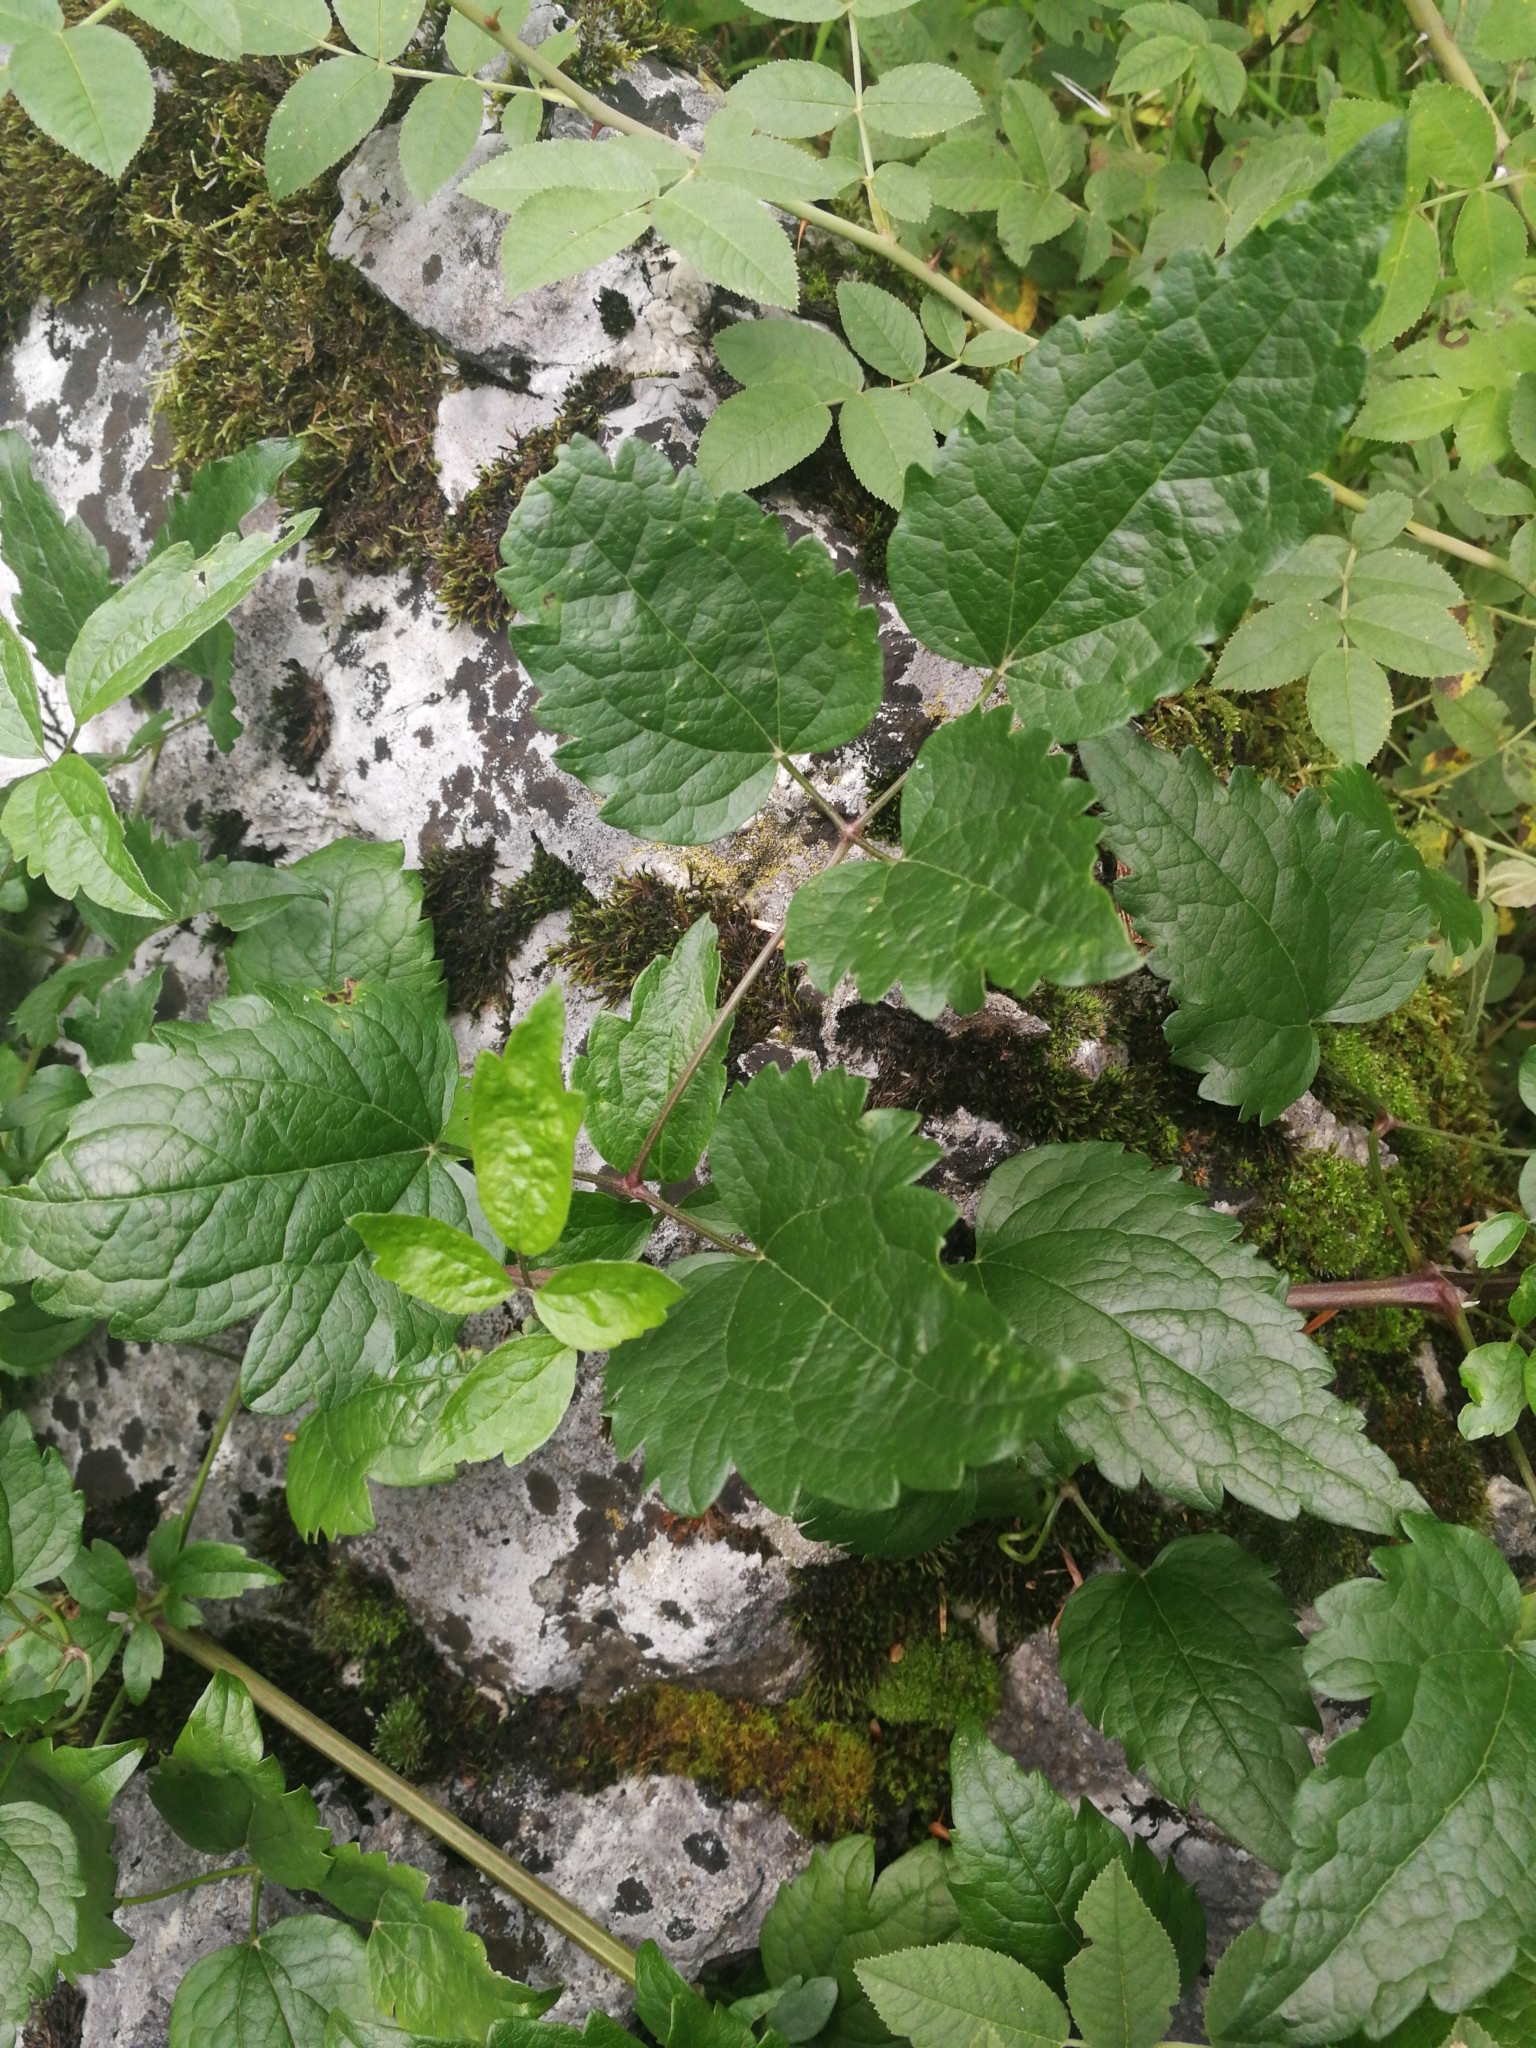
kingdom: Plantae
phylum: Tracheophyta
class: Magnoliopsida
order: Ranunculales
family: Ranunculaceae
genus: Clematis
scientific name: Clematis vitalba
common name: Evergreen clematis
